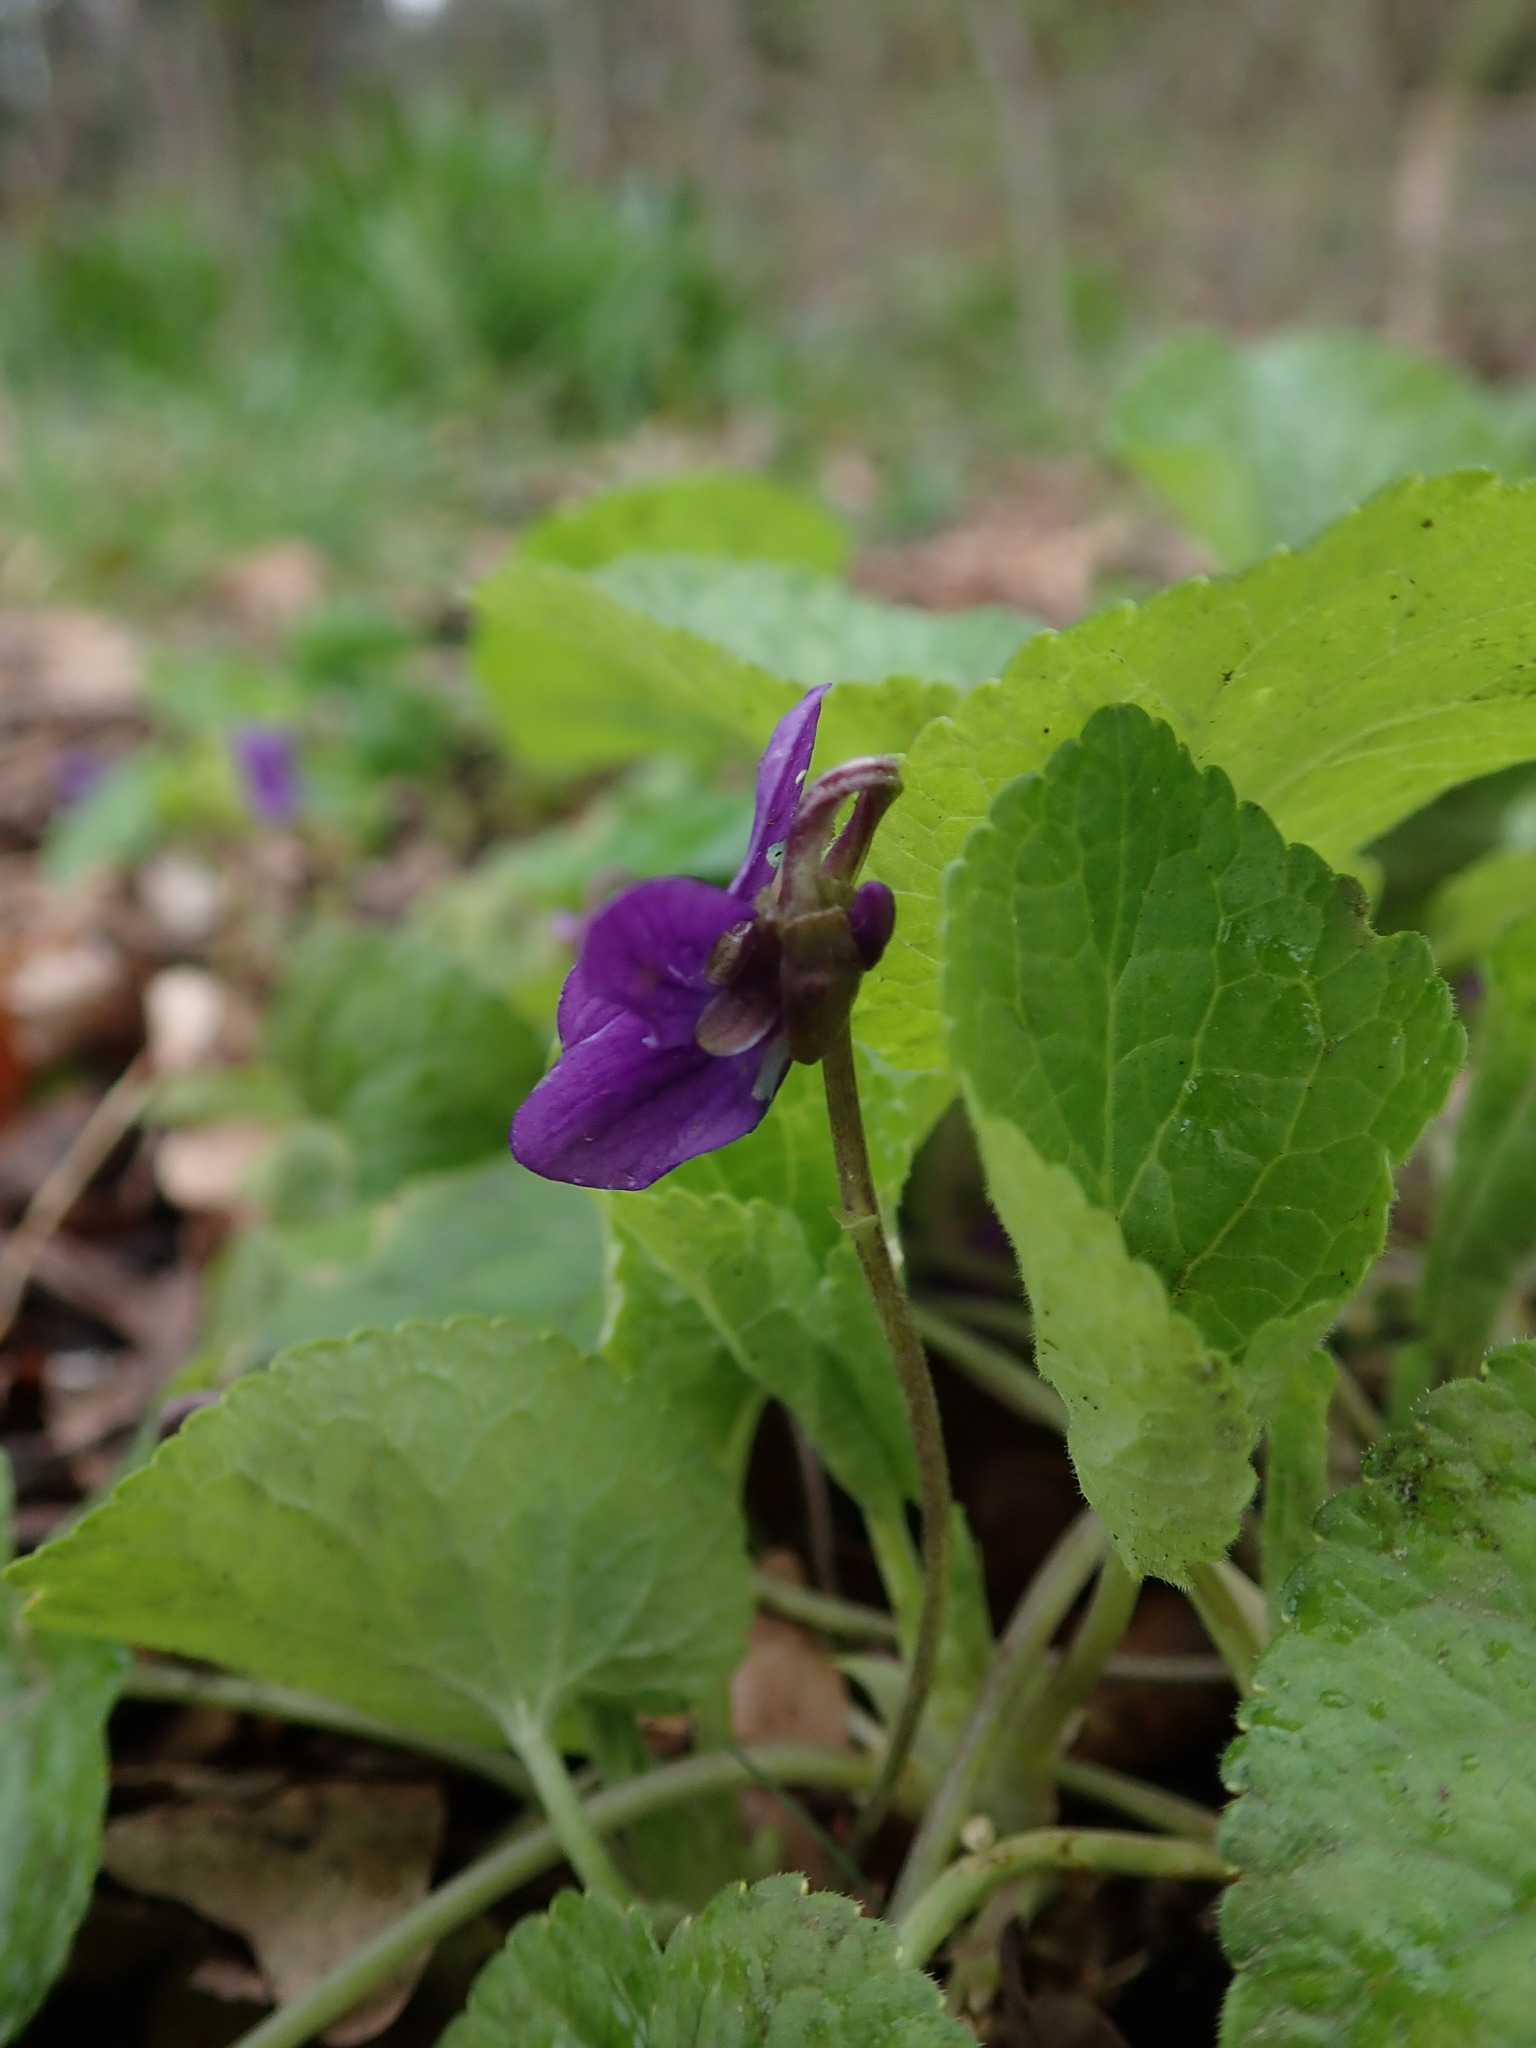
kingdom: Plantae
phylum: Tracheophyta
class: Magnoliopsida
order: Malpighiales
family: Violaceae
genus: Viola
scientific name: Viola odorata
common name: Sweet violet
